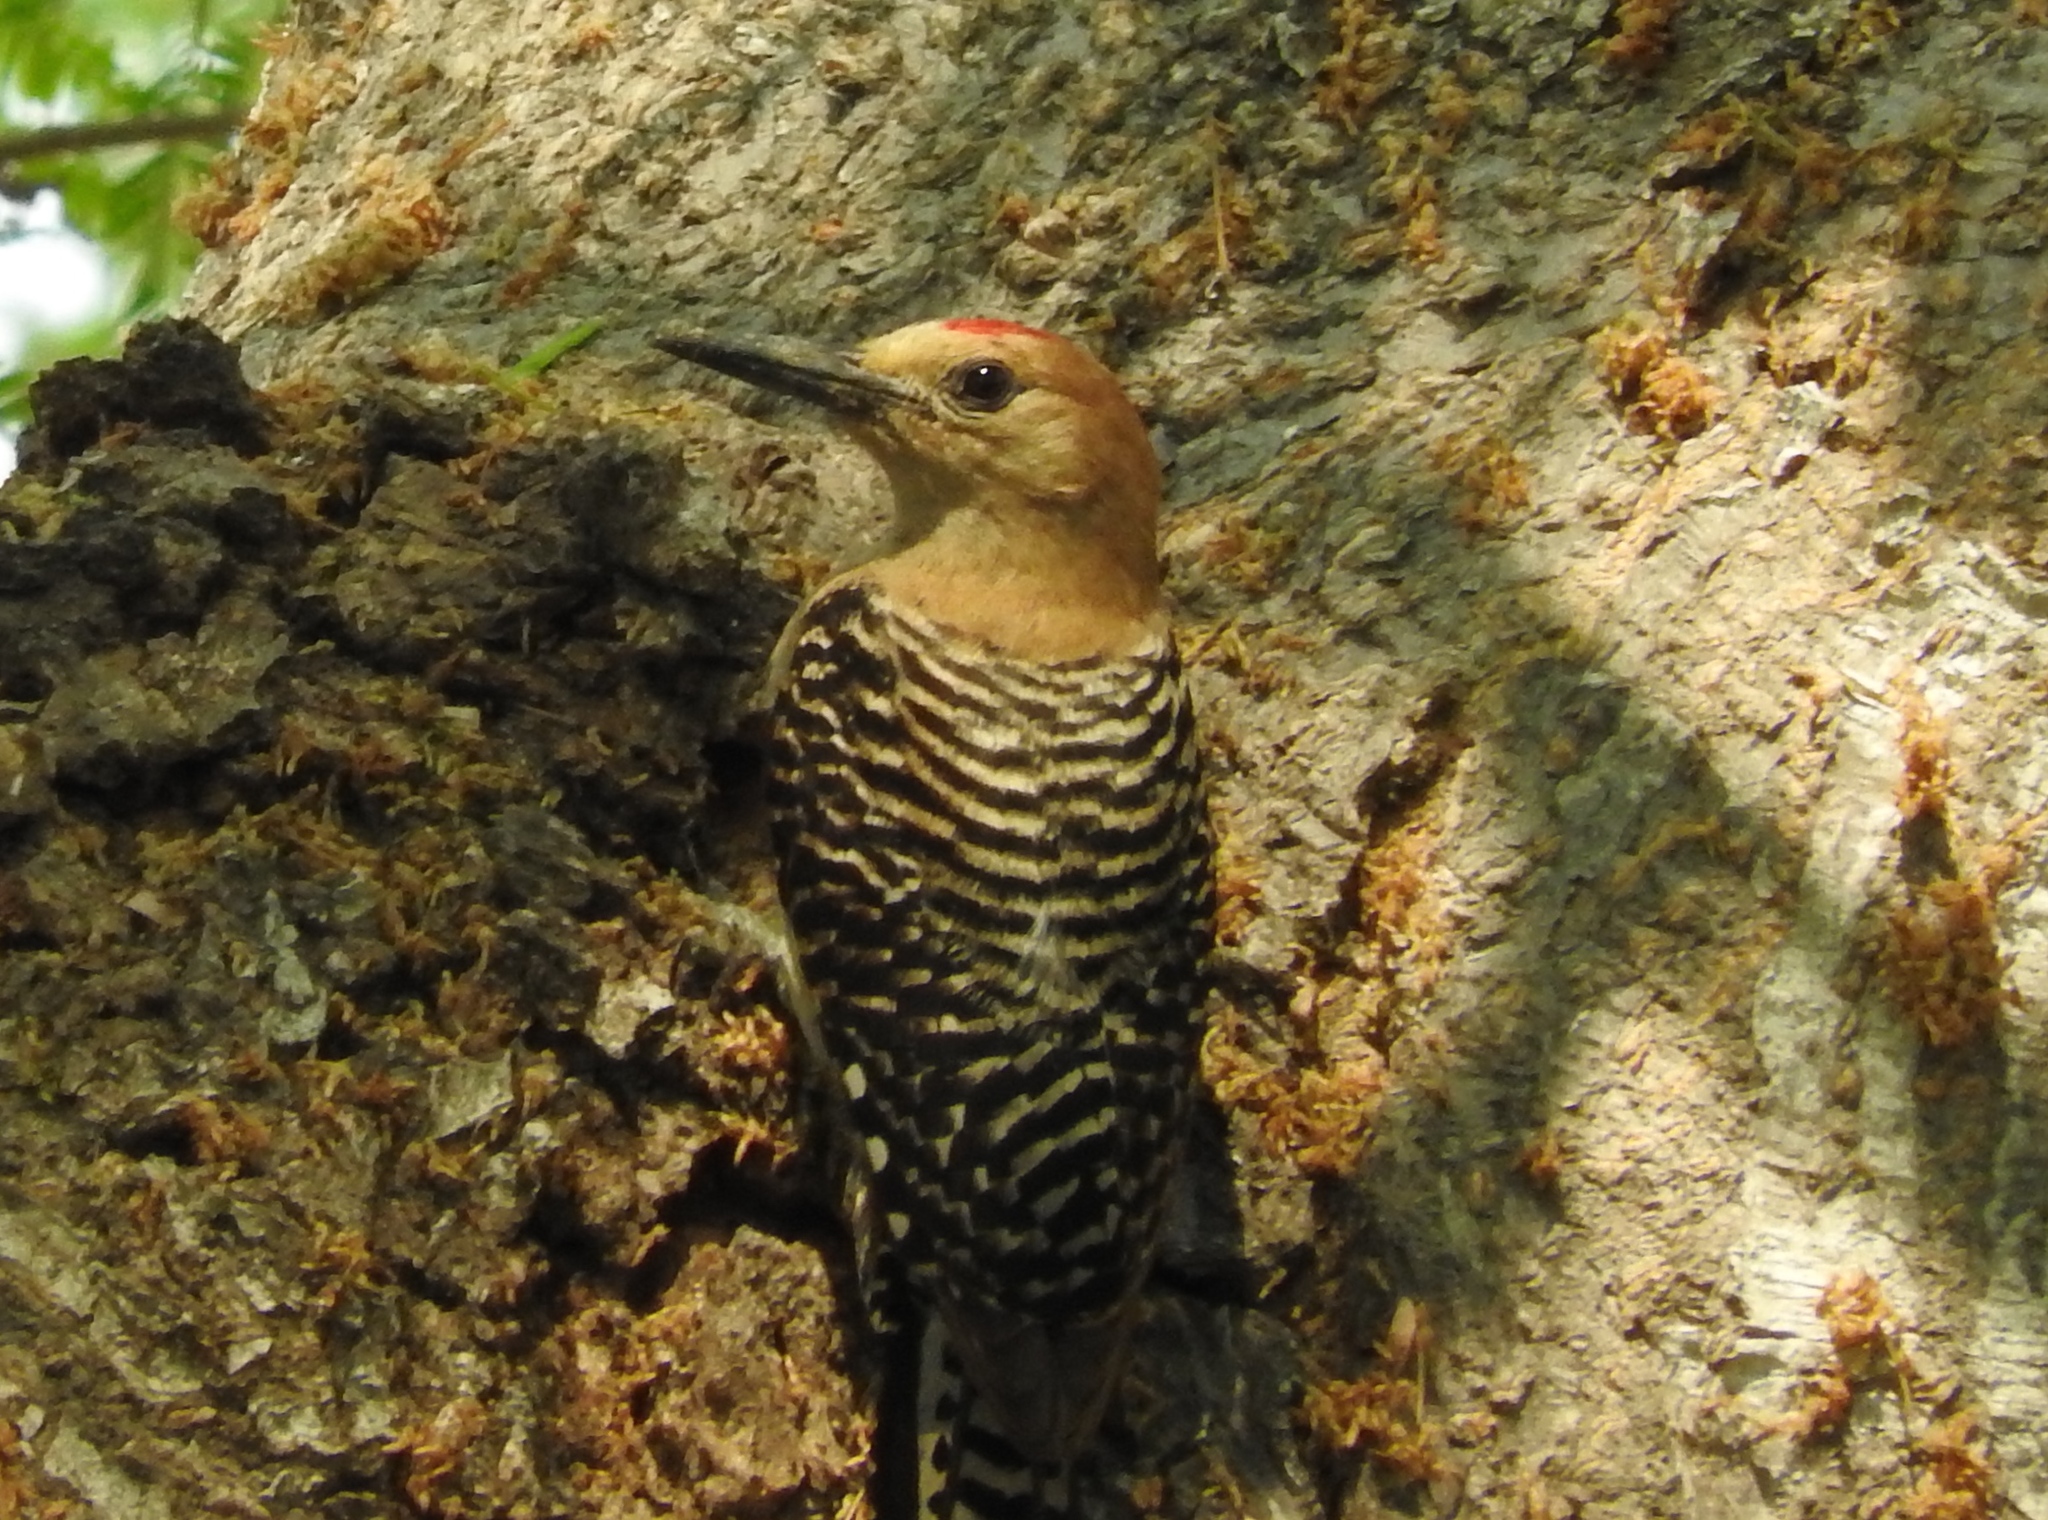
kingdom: Animalia
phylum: Chordata
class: Aves
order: Piciformes
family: Picidae
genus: Melanerpes
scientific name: Melanerpes uropygialis
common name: Gila woodpecker
